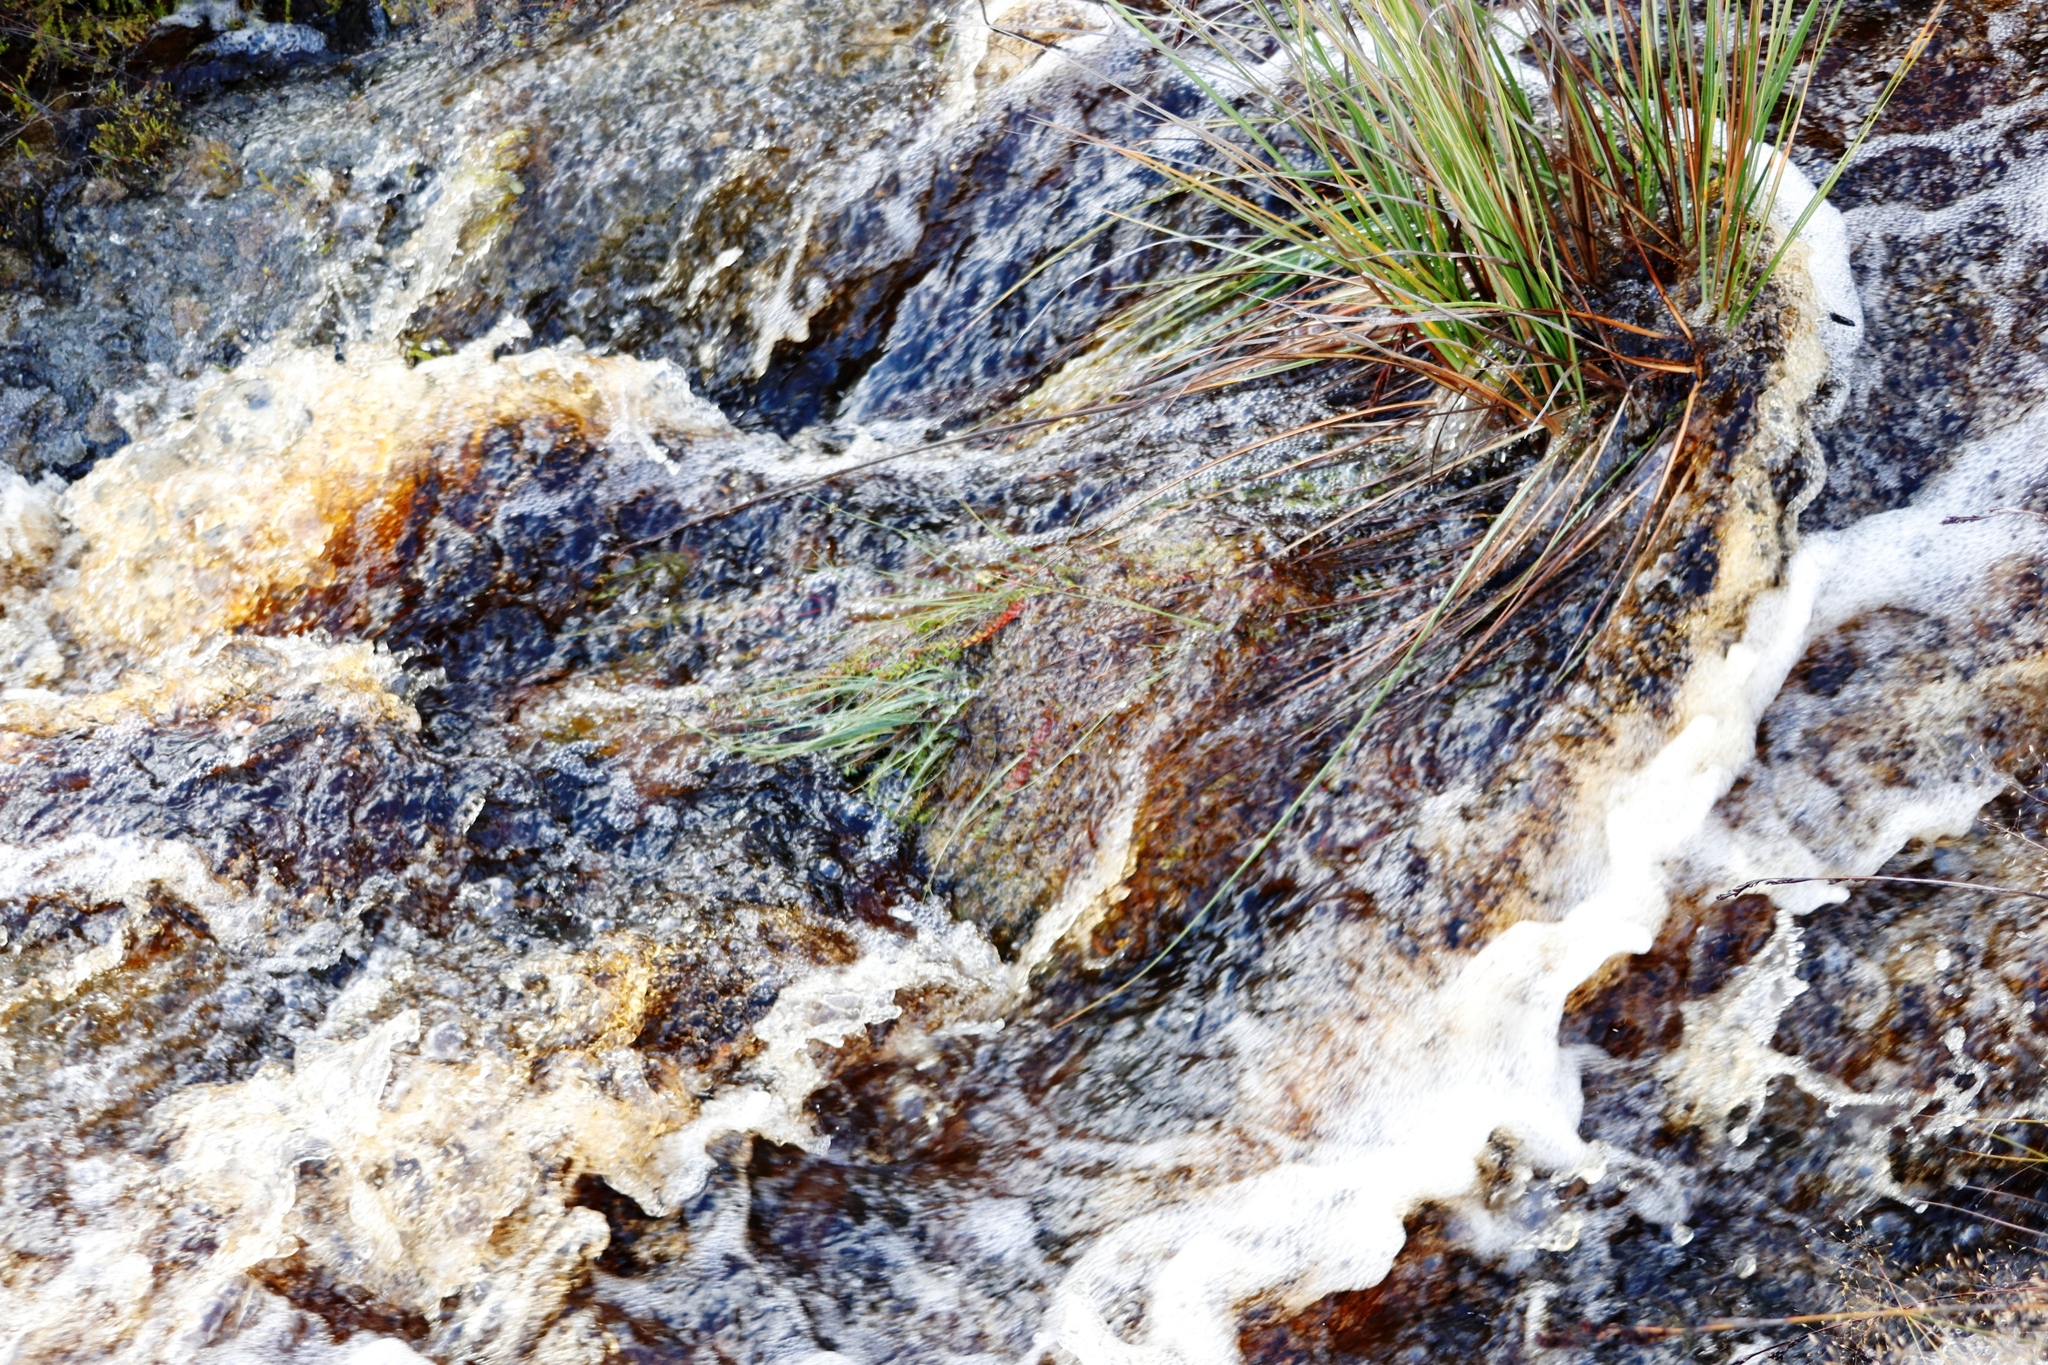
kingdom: Plantae
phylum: Tracheophyta
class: Magnoliopsida
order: Saxifragales
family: Haloragaceae
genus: Laurembergia
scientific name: Laurembergia repens
